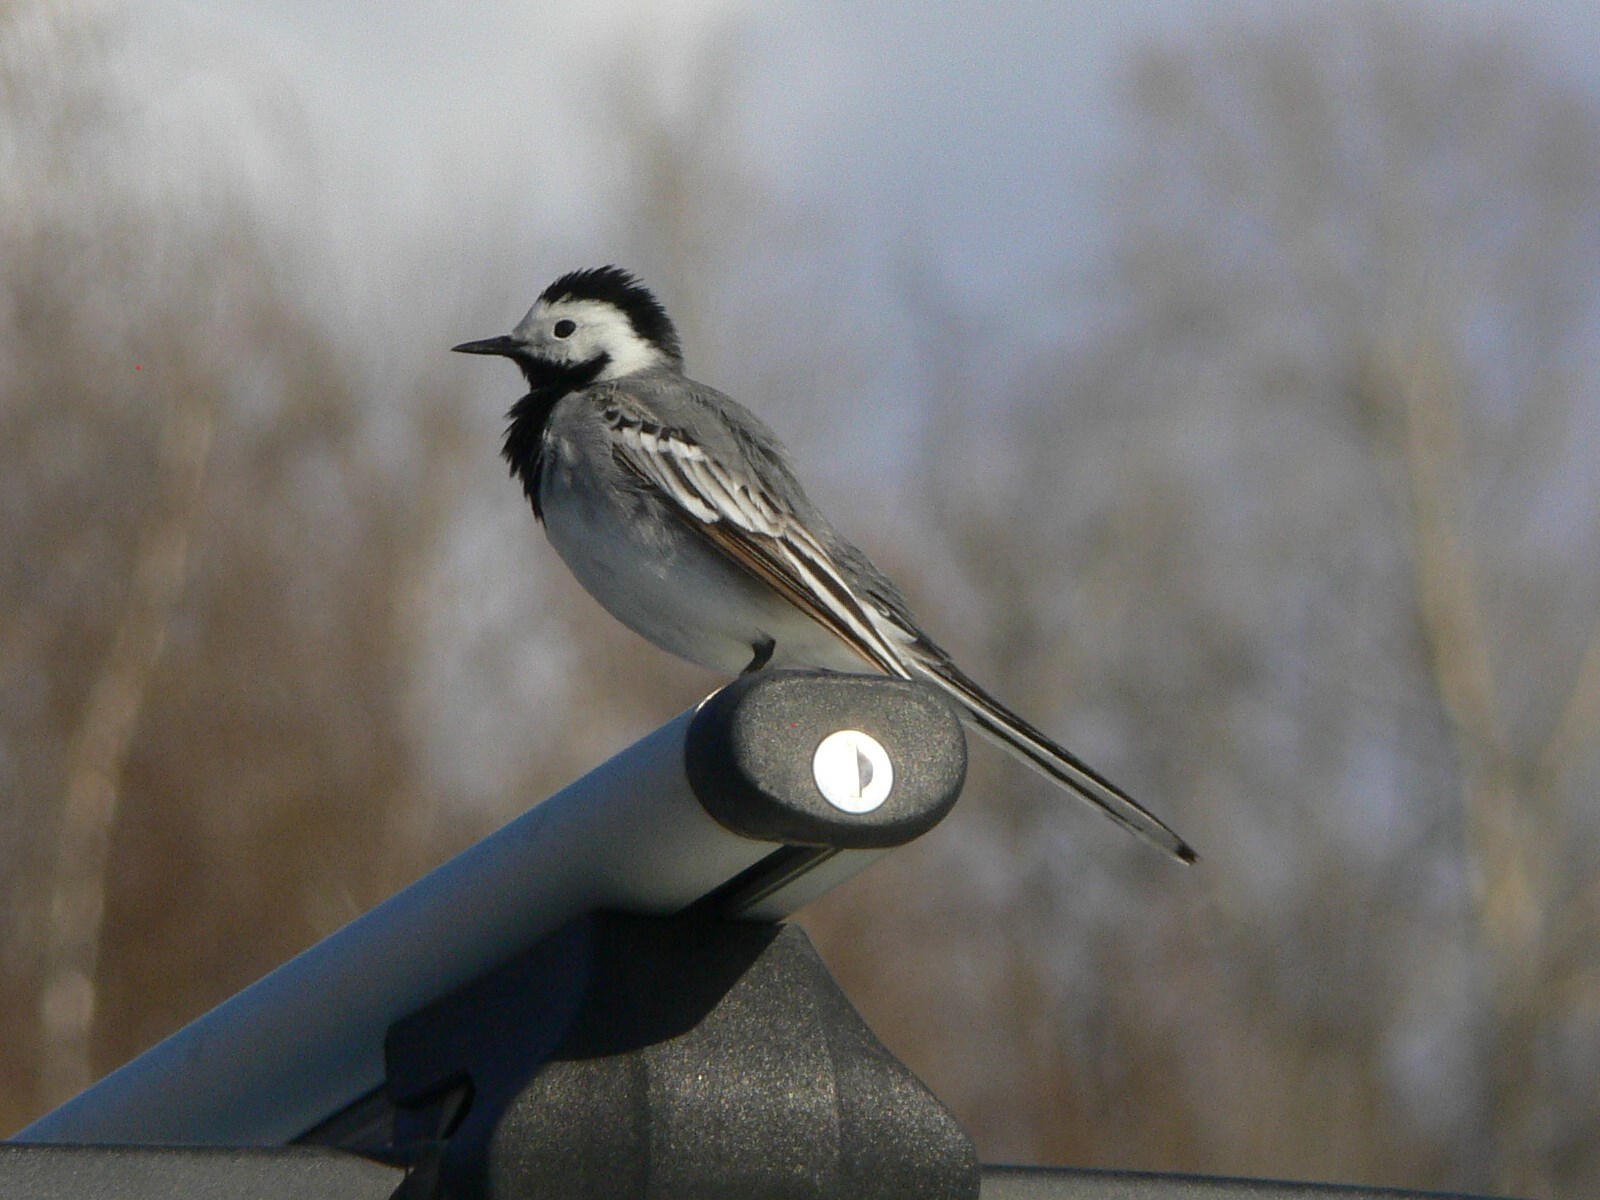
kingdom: Animalia
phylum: Chordata
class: Aves
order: Passeriformes
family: Motacillidae
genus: Motacilla
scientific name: Motacilla alba
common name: White wagtail
